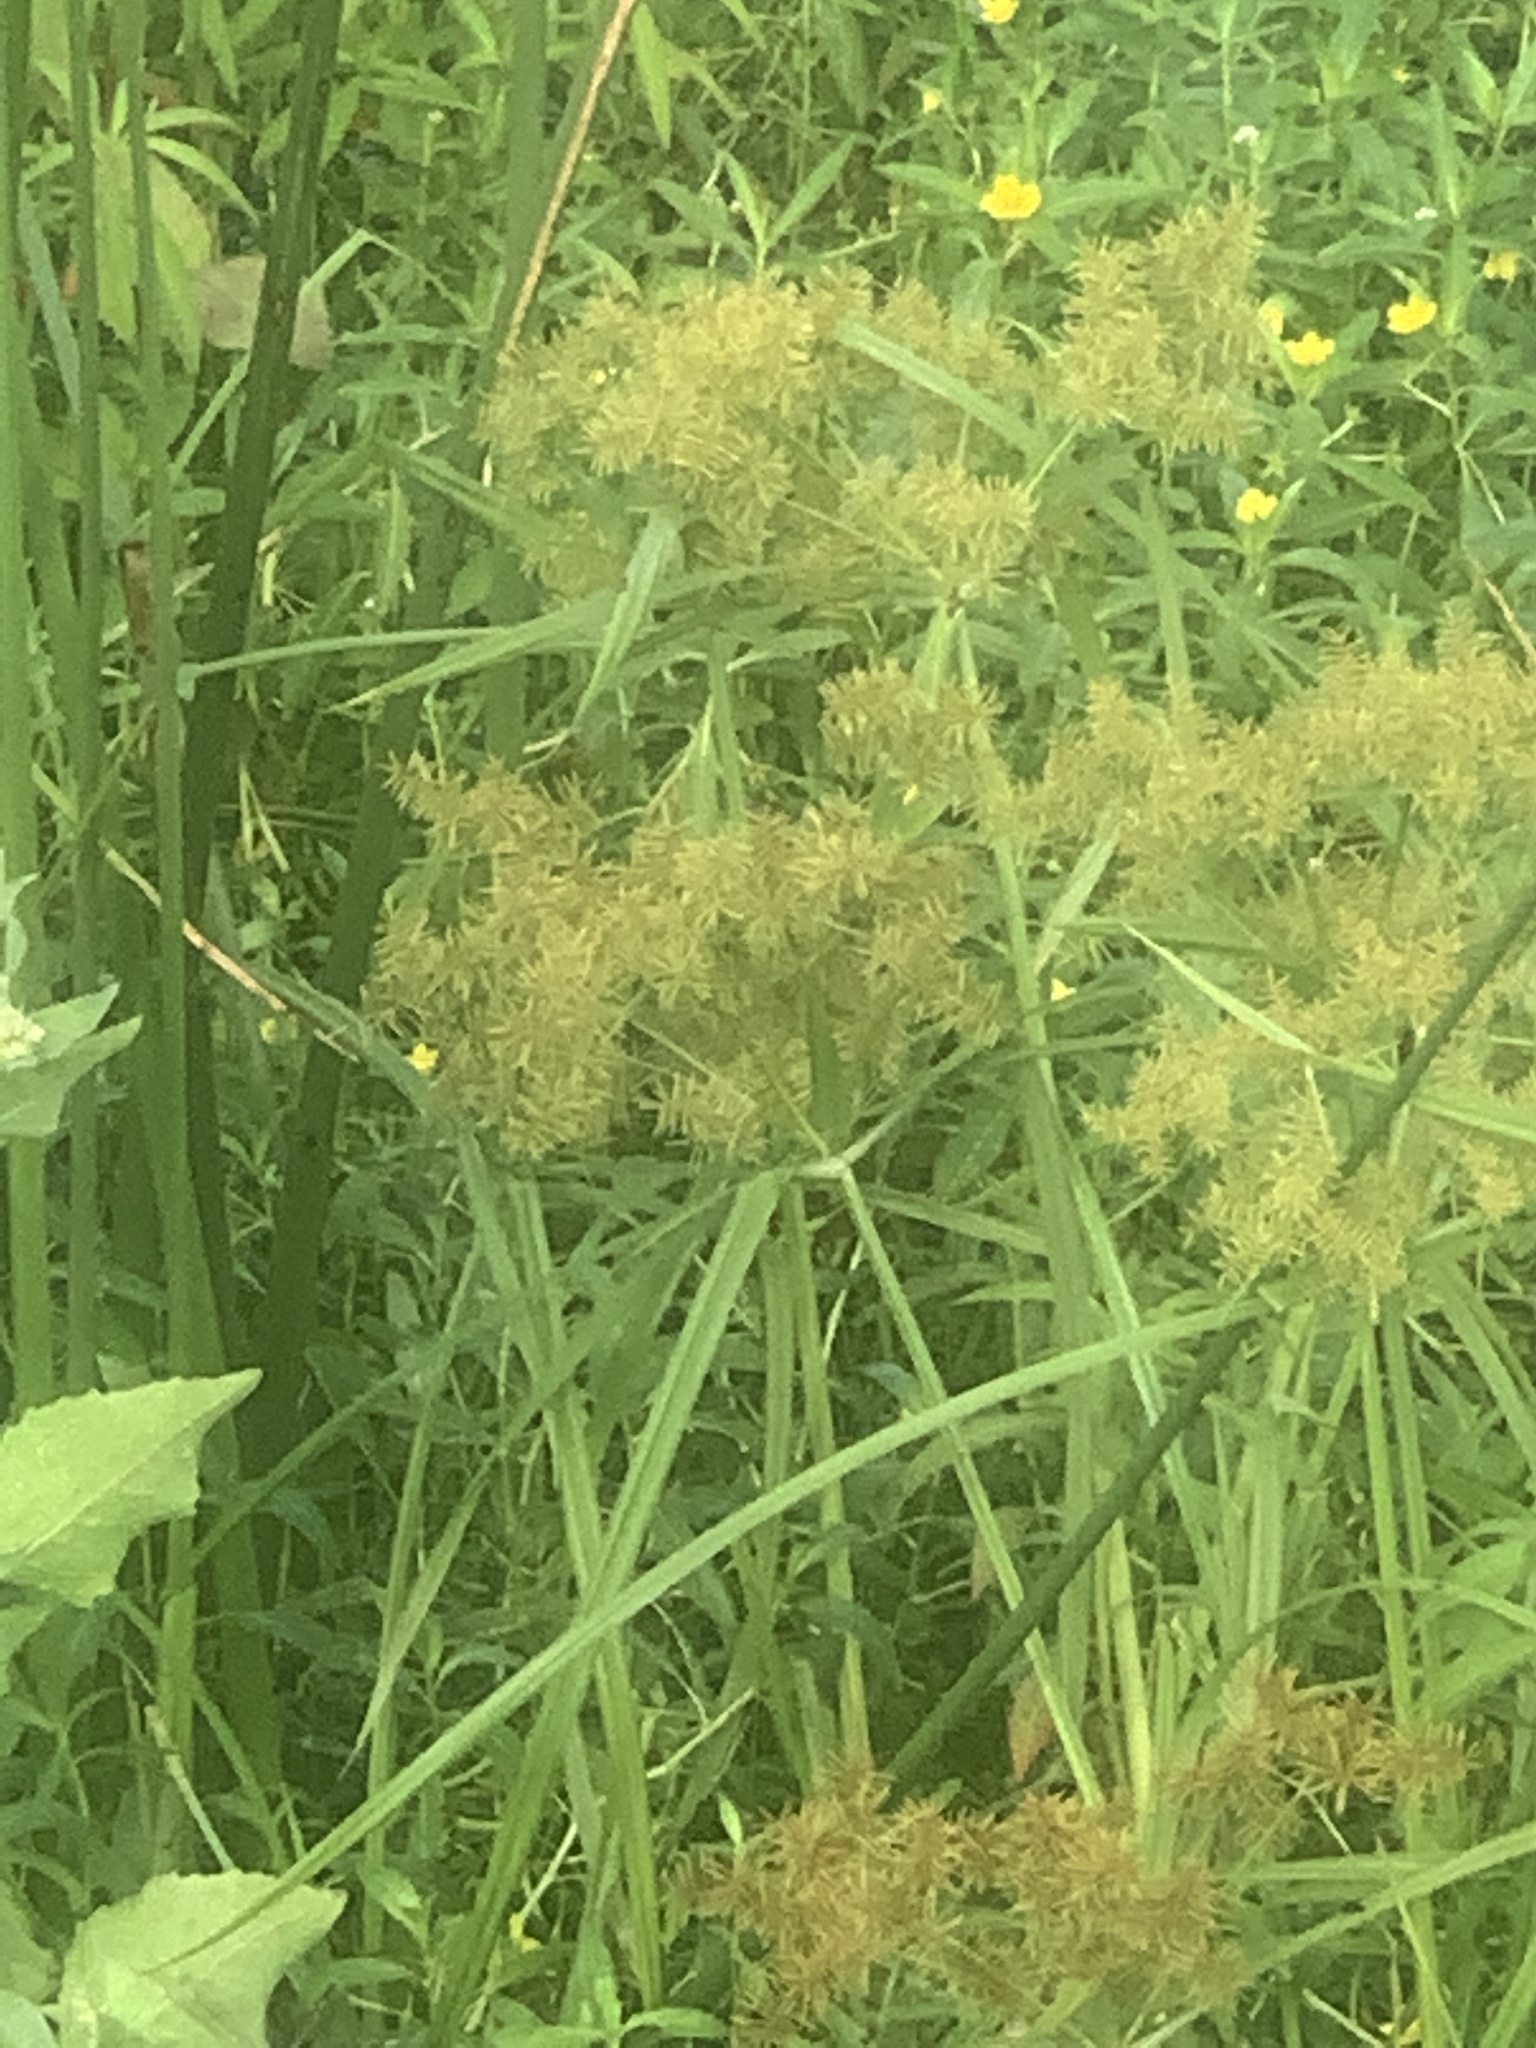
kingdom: Plantae
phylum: Tracheophyta
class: Liliopsida
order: Poales
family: Cyperaceae
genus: Cyperus
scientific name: Cyperus odoratus
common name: Fragrant flatsedge
